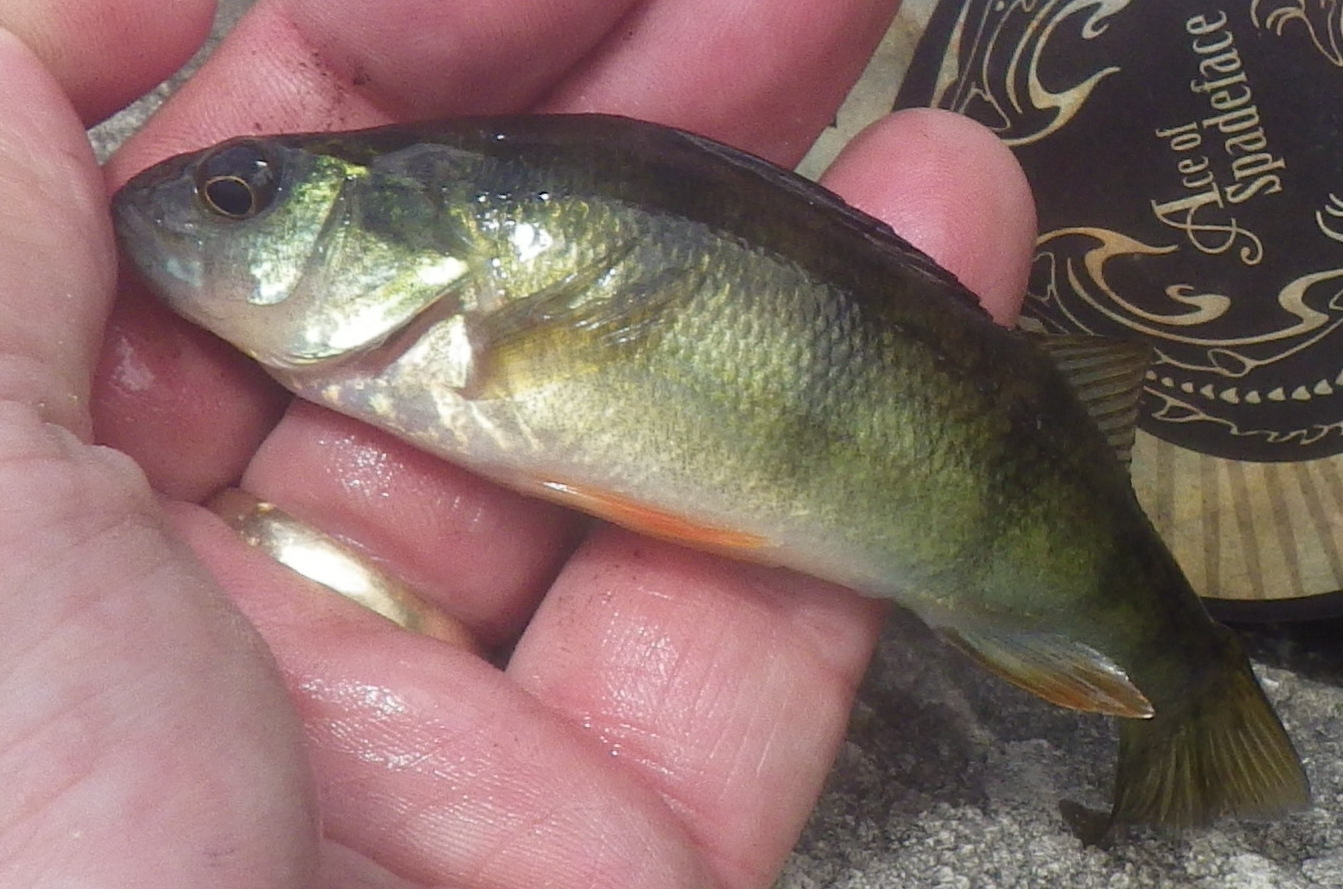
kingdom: Animalia
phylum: Chordata
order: Perciformes
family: Percidae
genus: Perca
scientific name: Perca flavescens
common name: Yellow perch
